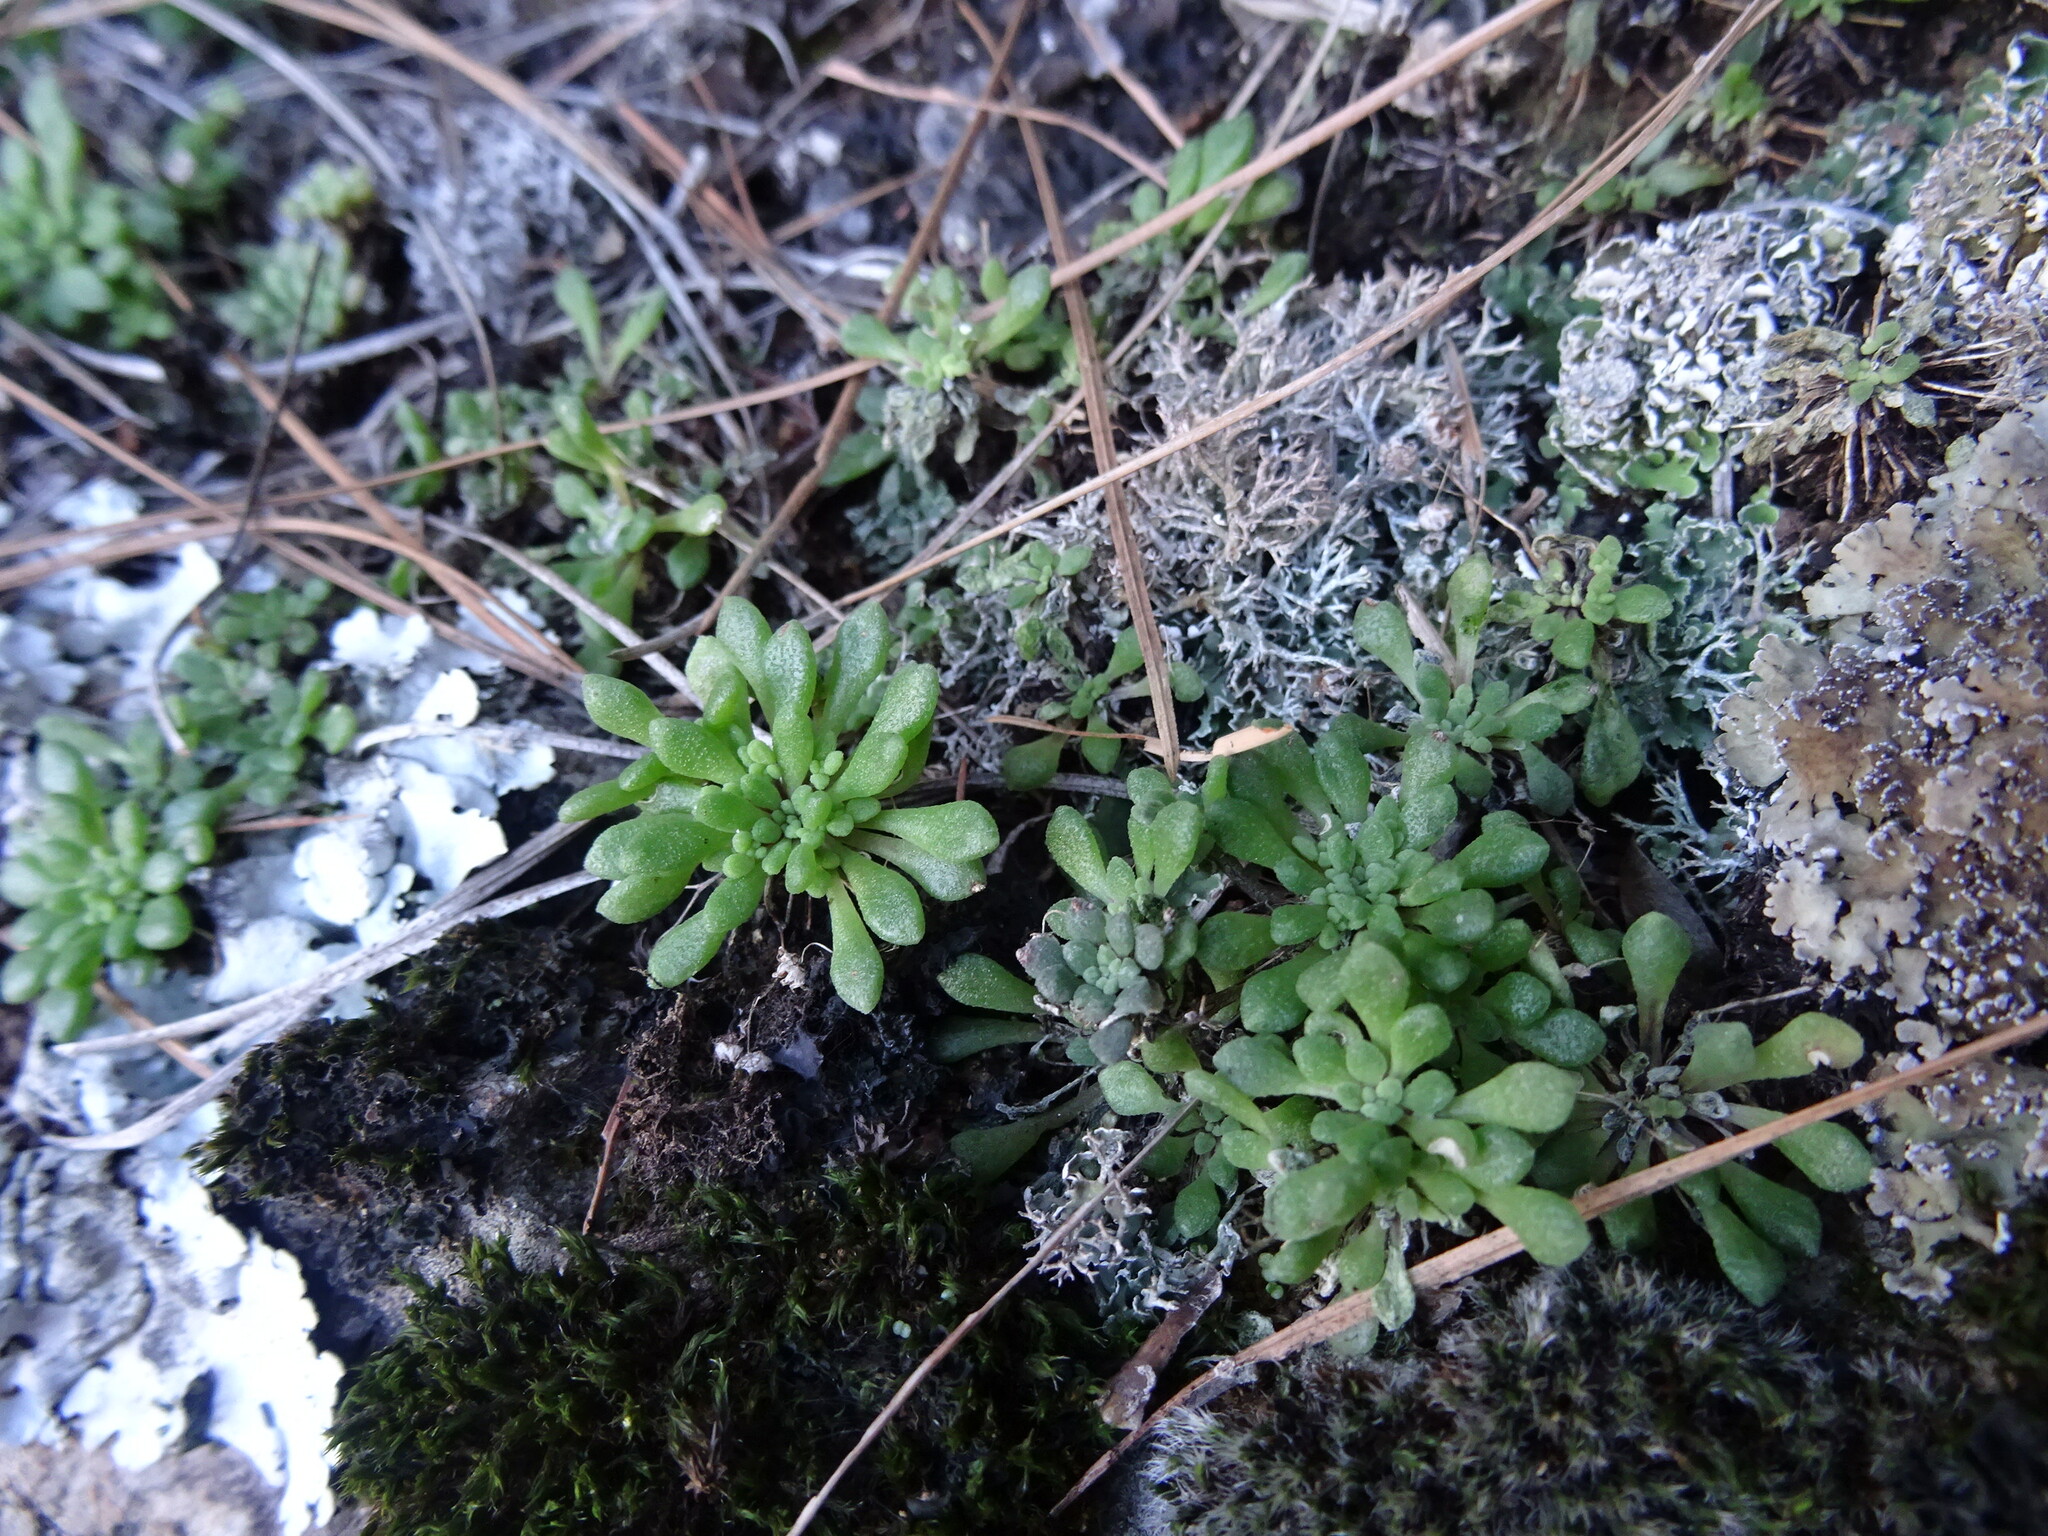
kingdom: Plantae
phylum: Tracheophyta
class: Magnoliopsida
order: Saxifragales
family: Crassulaceae
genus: Monanthes
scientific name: Monanthes brachycaulos
